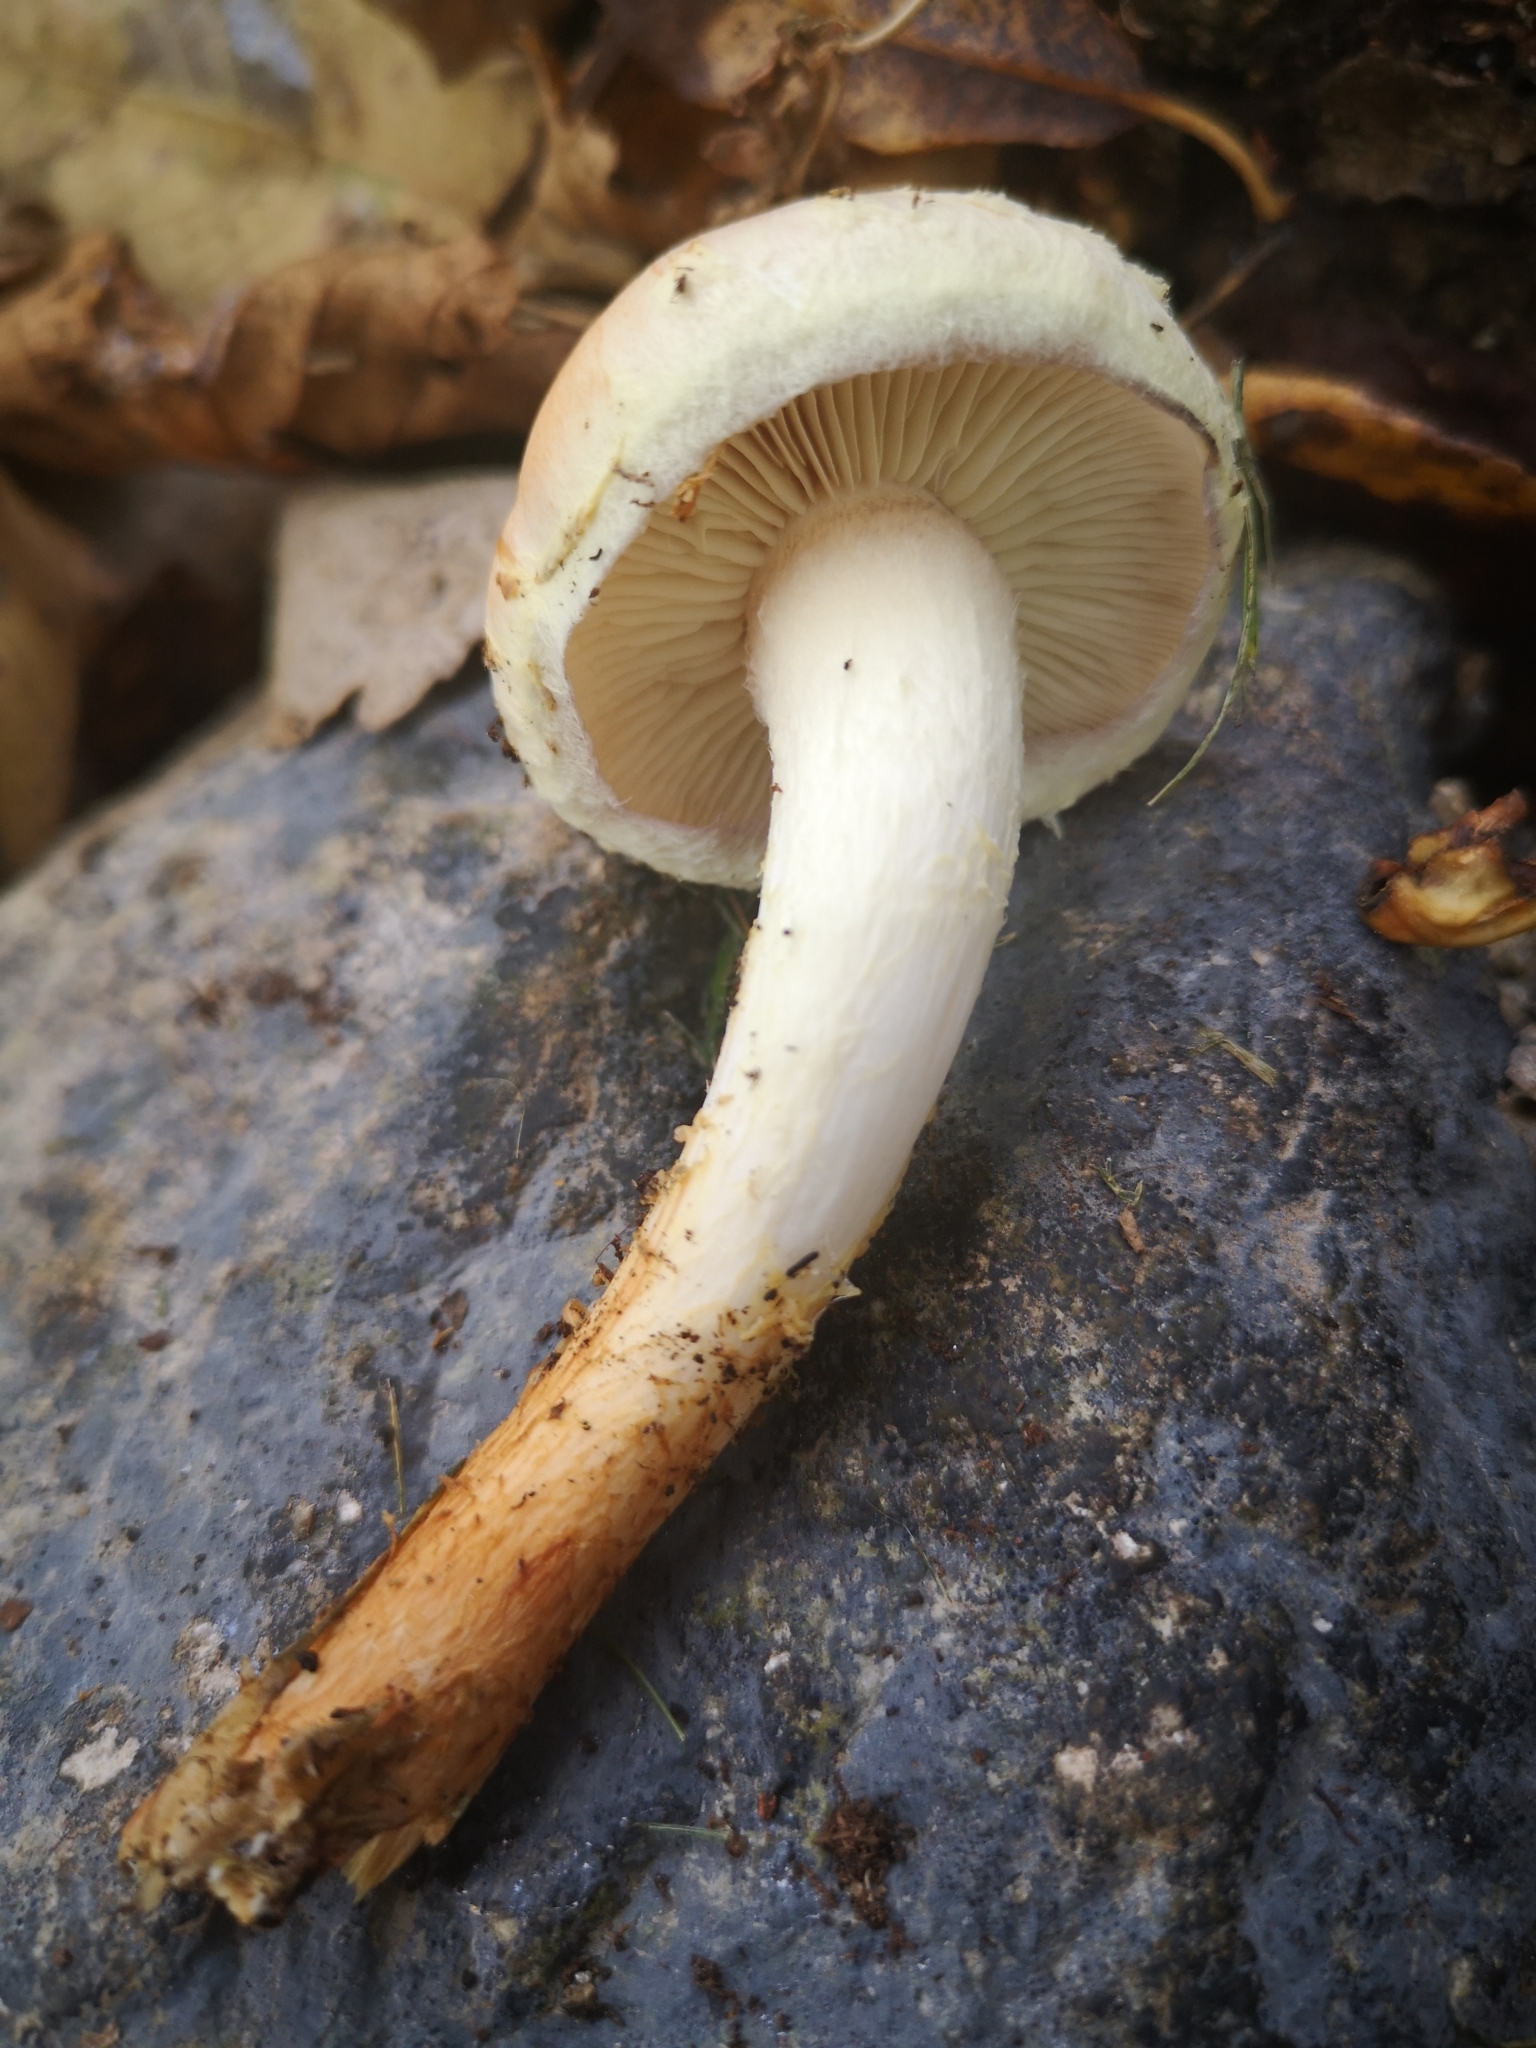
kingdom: Fungi
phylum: Basidiomycota
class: Agaricomycetes
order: Agaricales
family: Strophariaceae
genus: Hypholoma
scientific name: Hypholoma lateritium
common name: Brick caps
